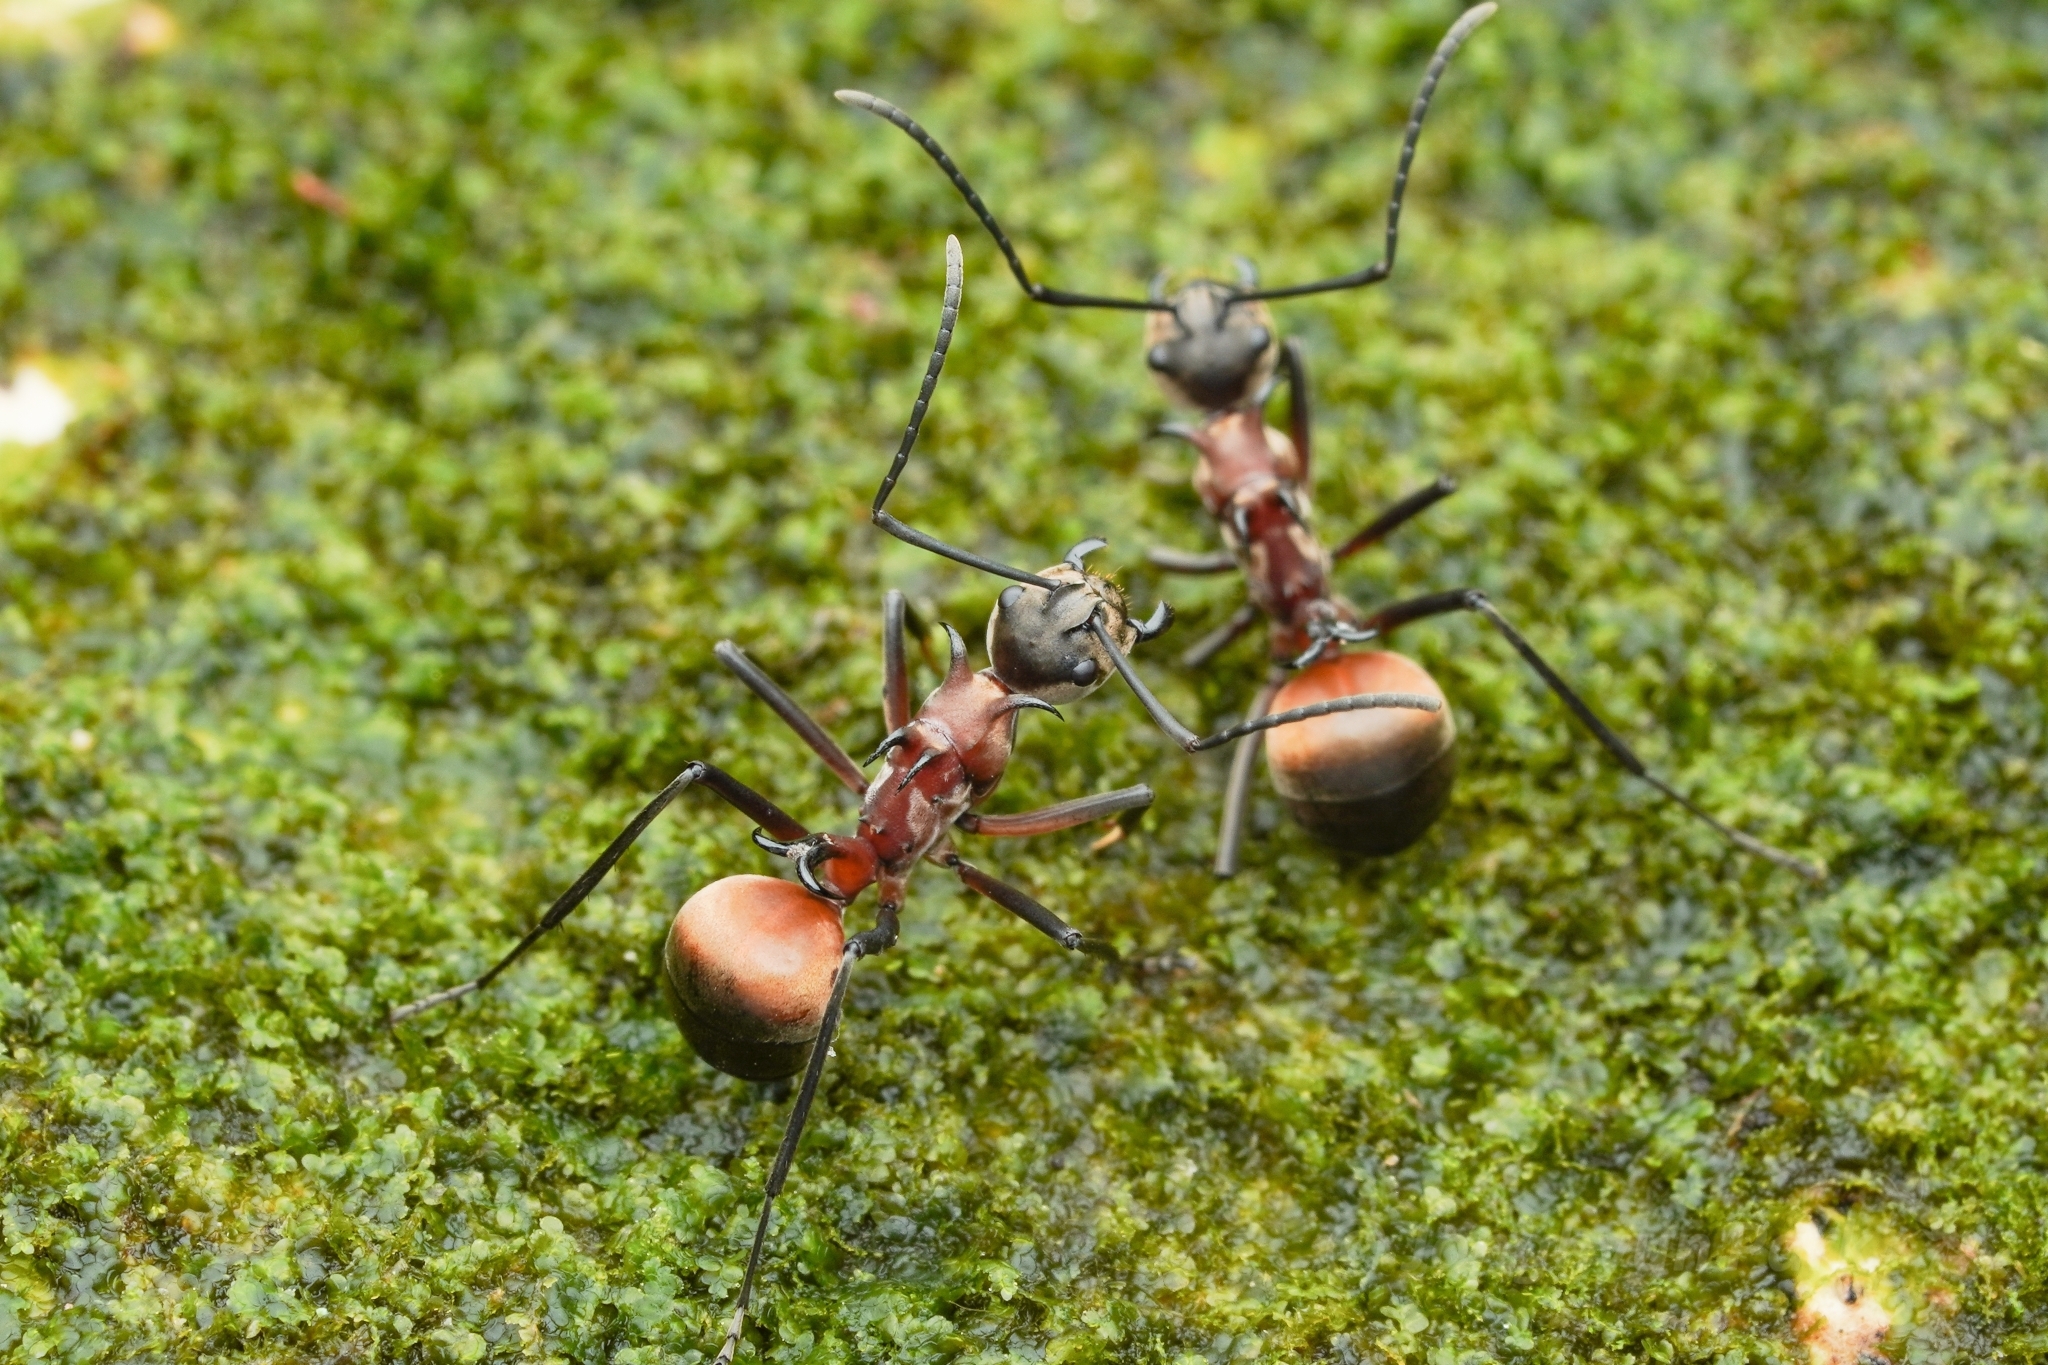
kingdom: Animalia
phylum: Arthropoda
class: Insecta
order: Hymenoptera
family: Formicidae
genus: Polyrhachis
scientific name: Polyrhachis olybria
